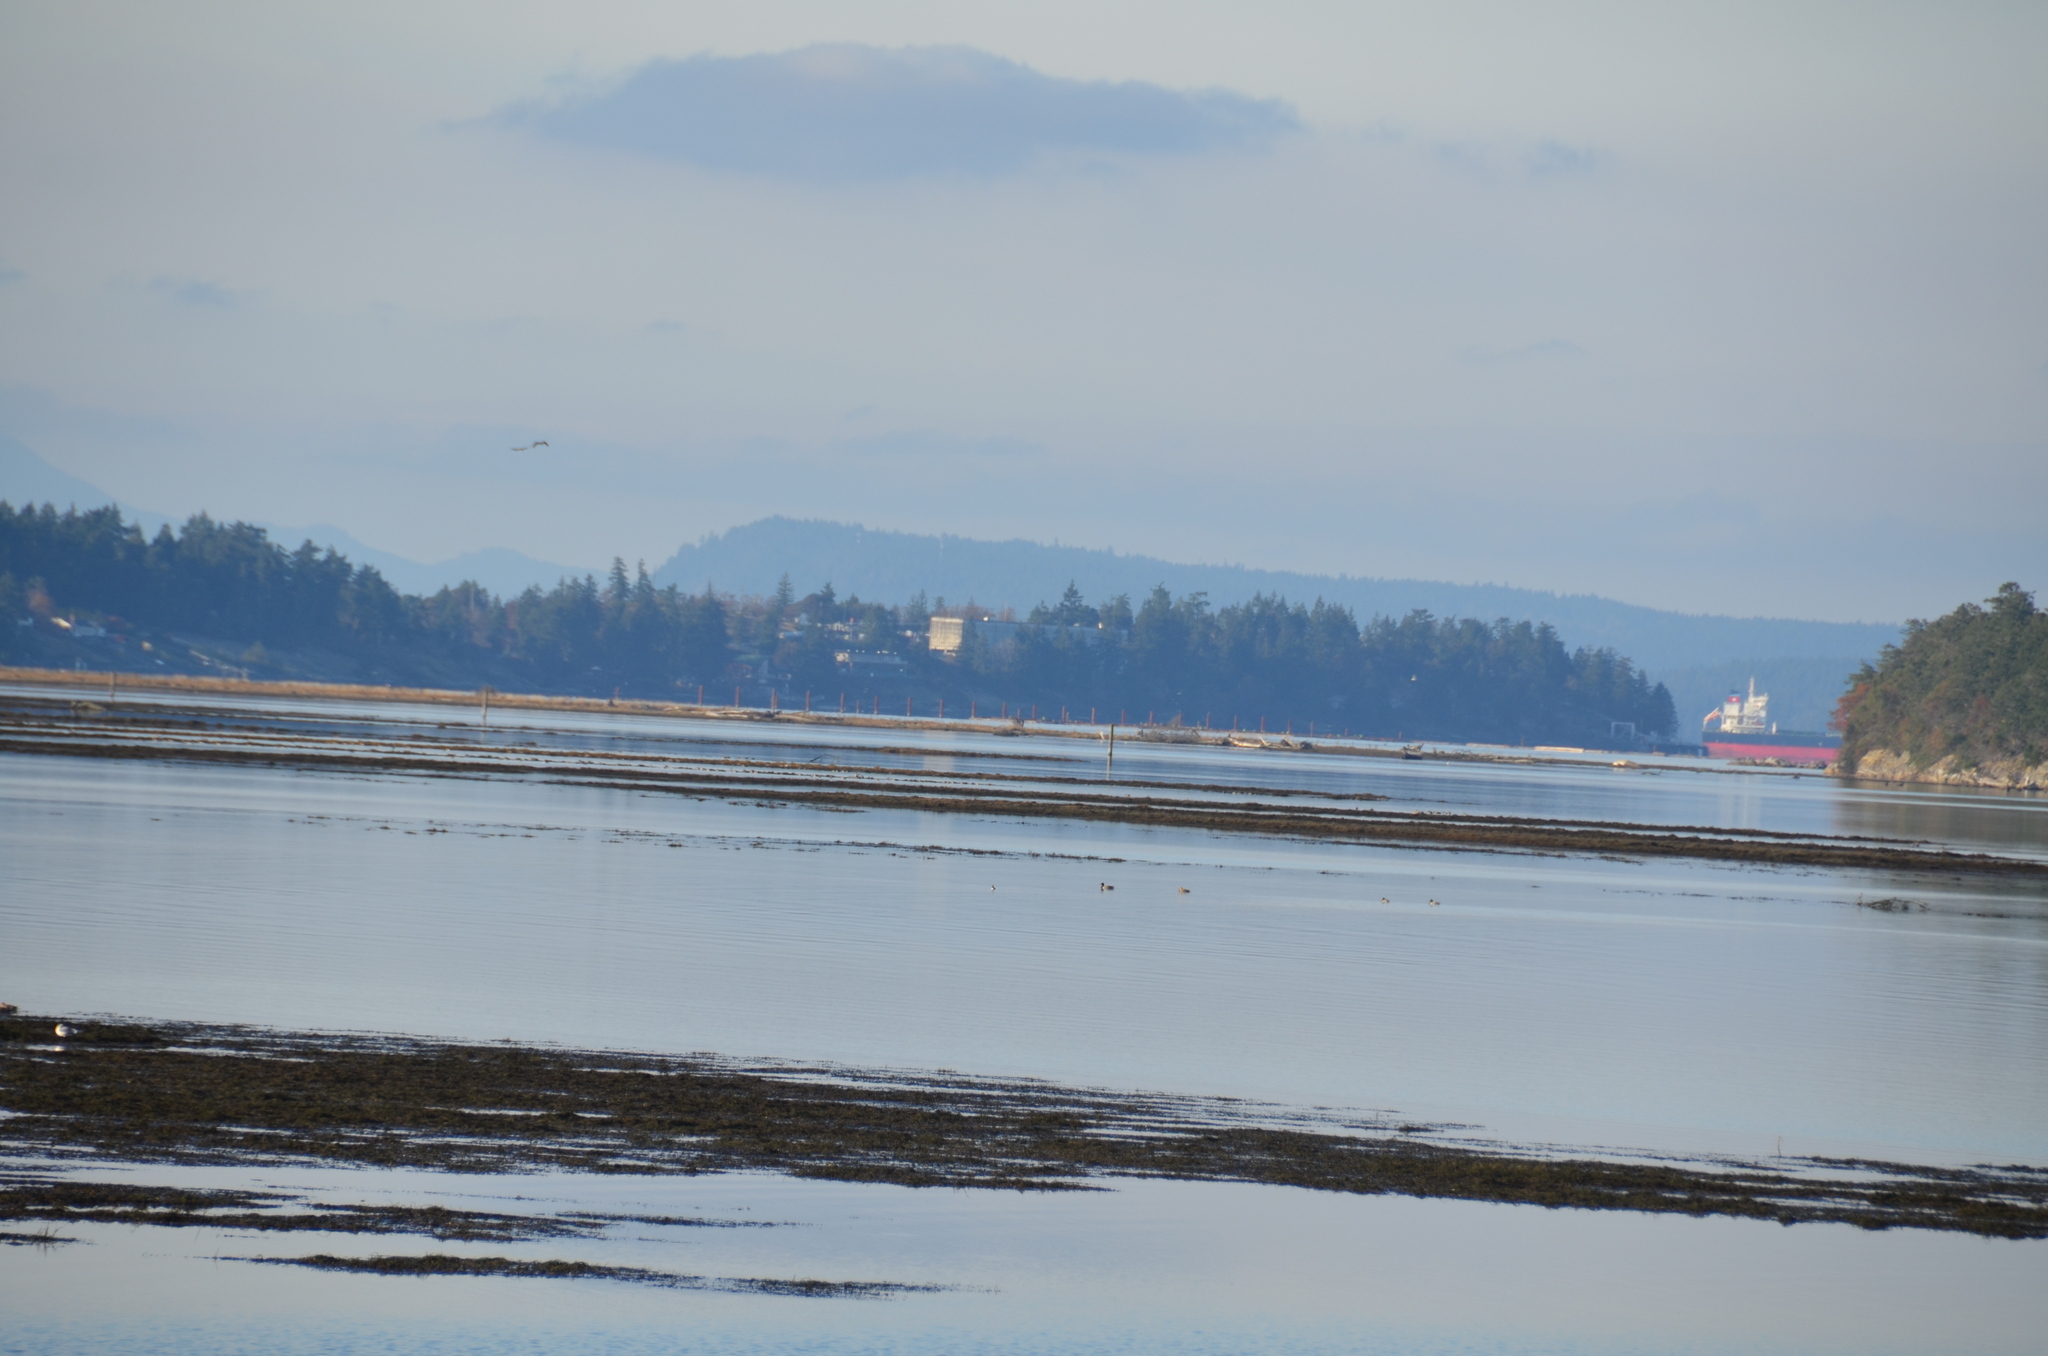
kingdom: Animalia
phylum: Chordata
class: Aves
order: Anseriformes
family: Anatidae
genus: Anas
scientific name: Anas platyrhynchos
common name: Mallard
